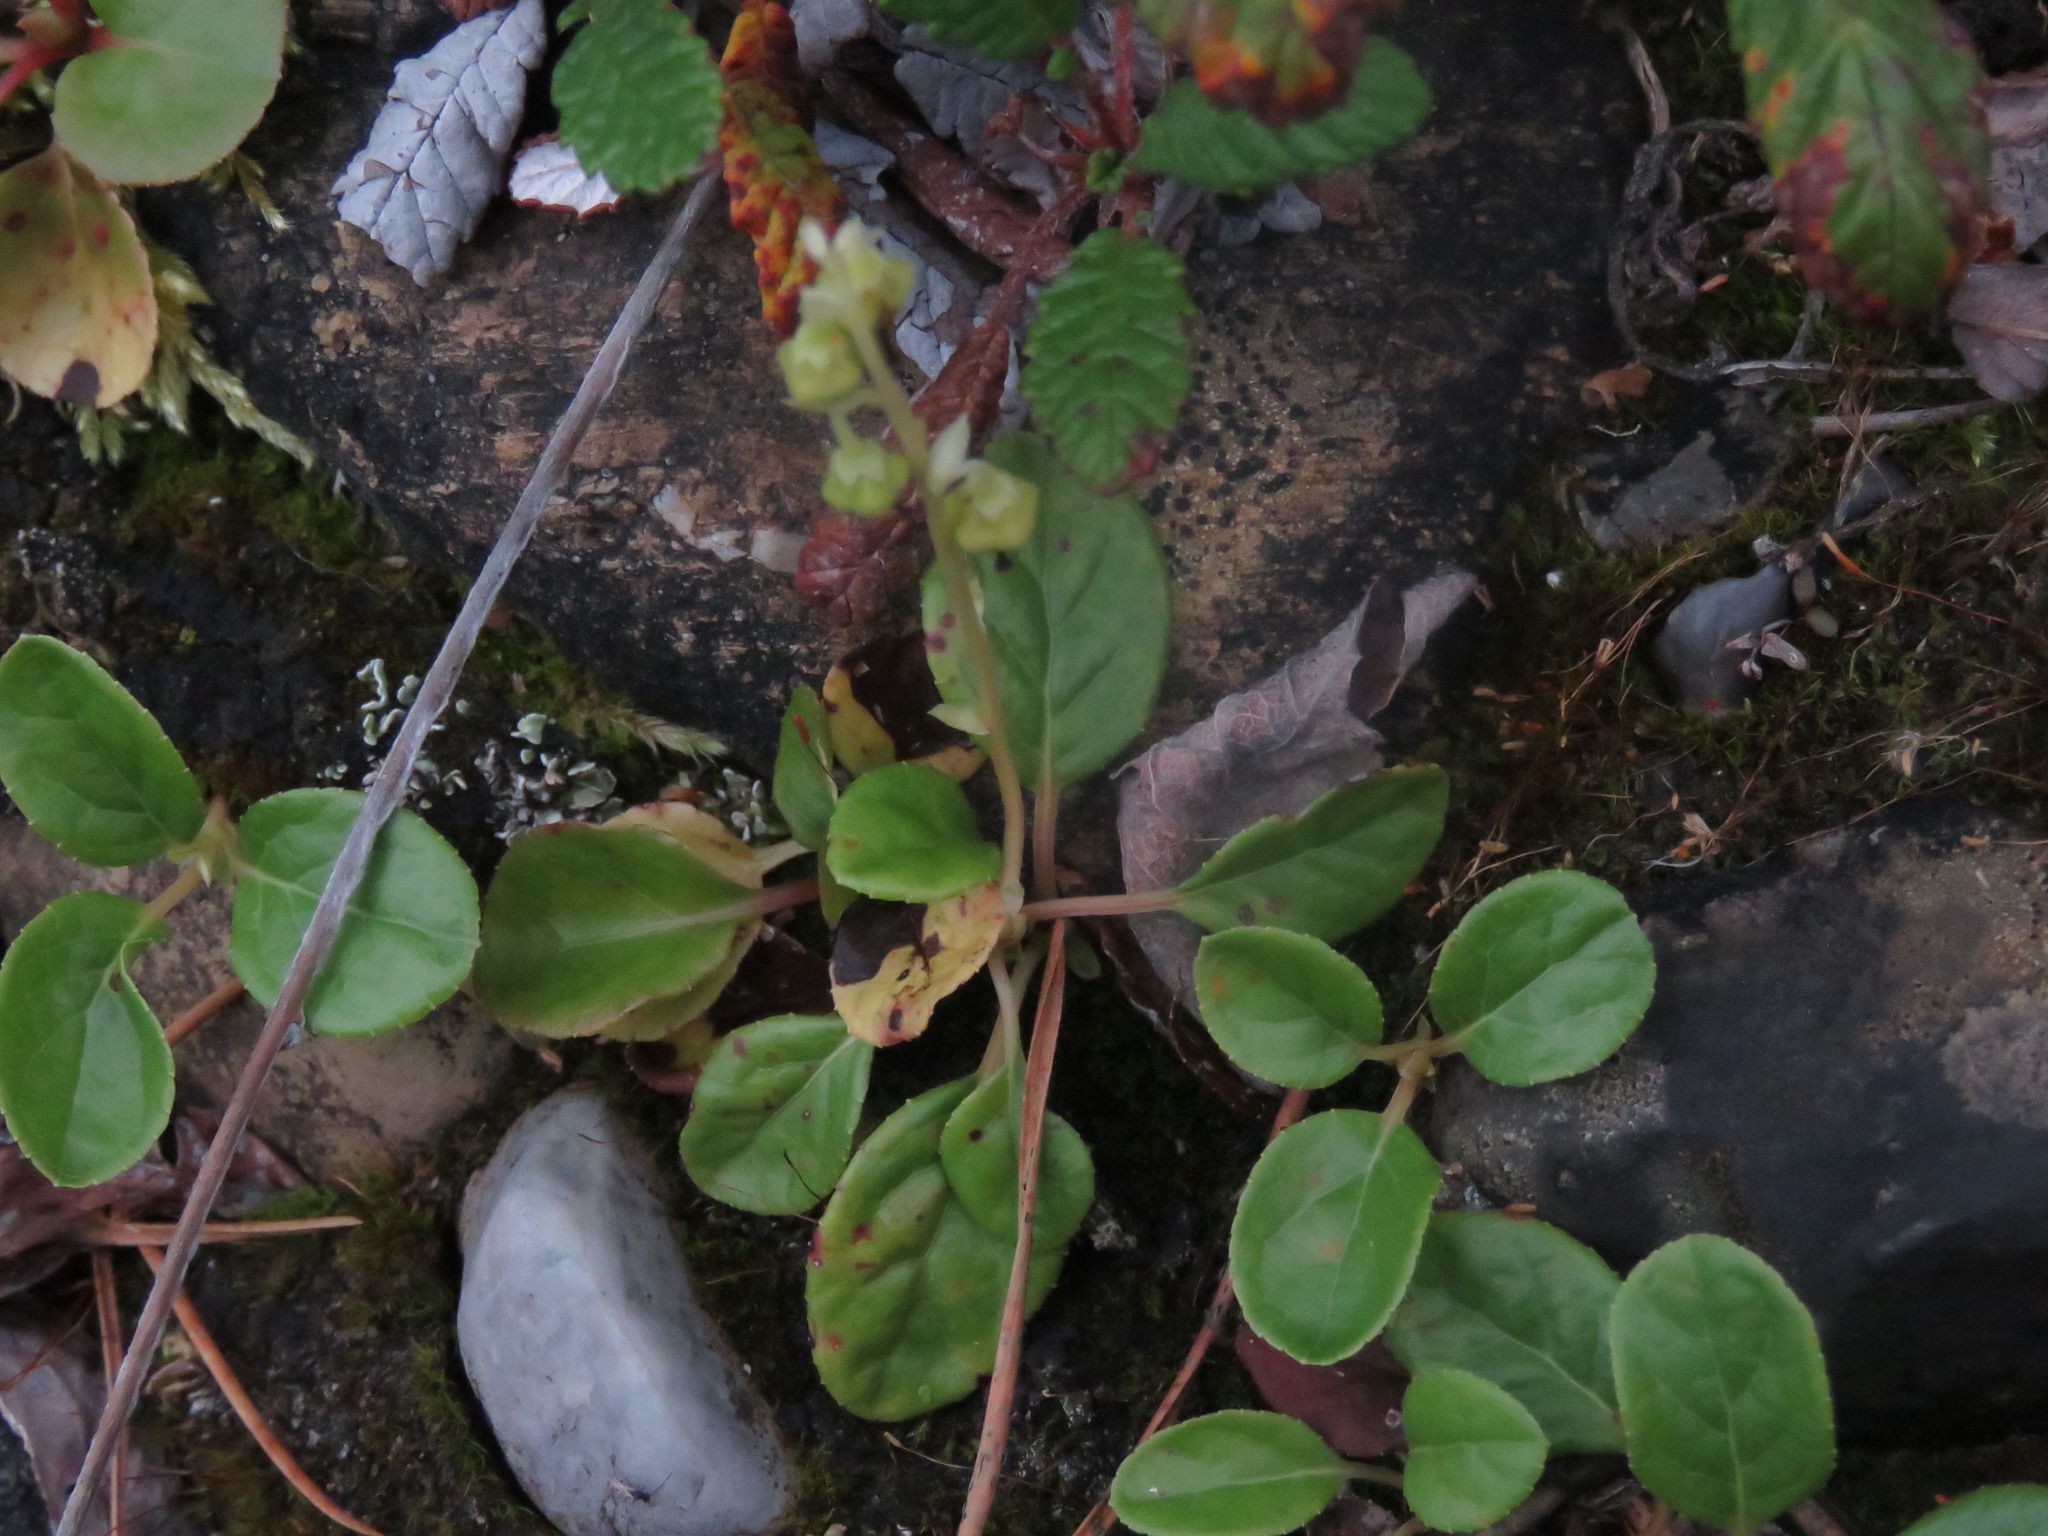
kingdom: Plantae
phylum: Tracheophyta
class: Magnoliopsida
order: Ericales
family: Ericaceae
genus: Orthilia
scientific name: Orthilia secunda
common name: One-sided orthilia
